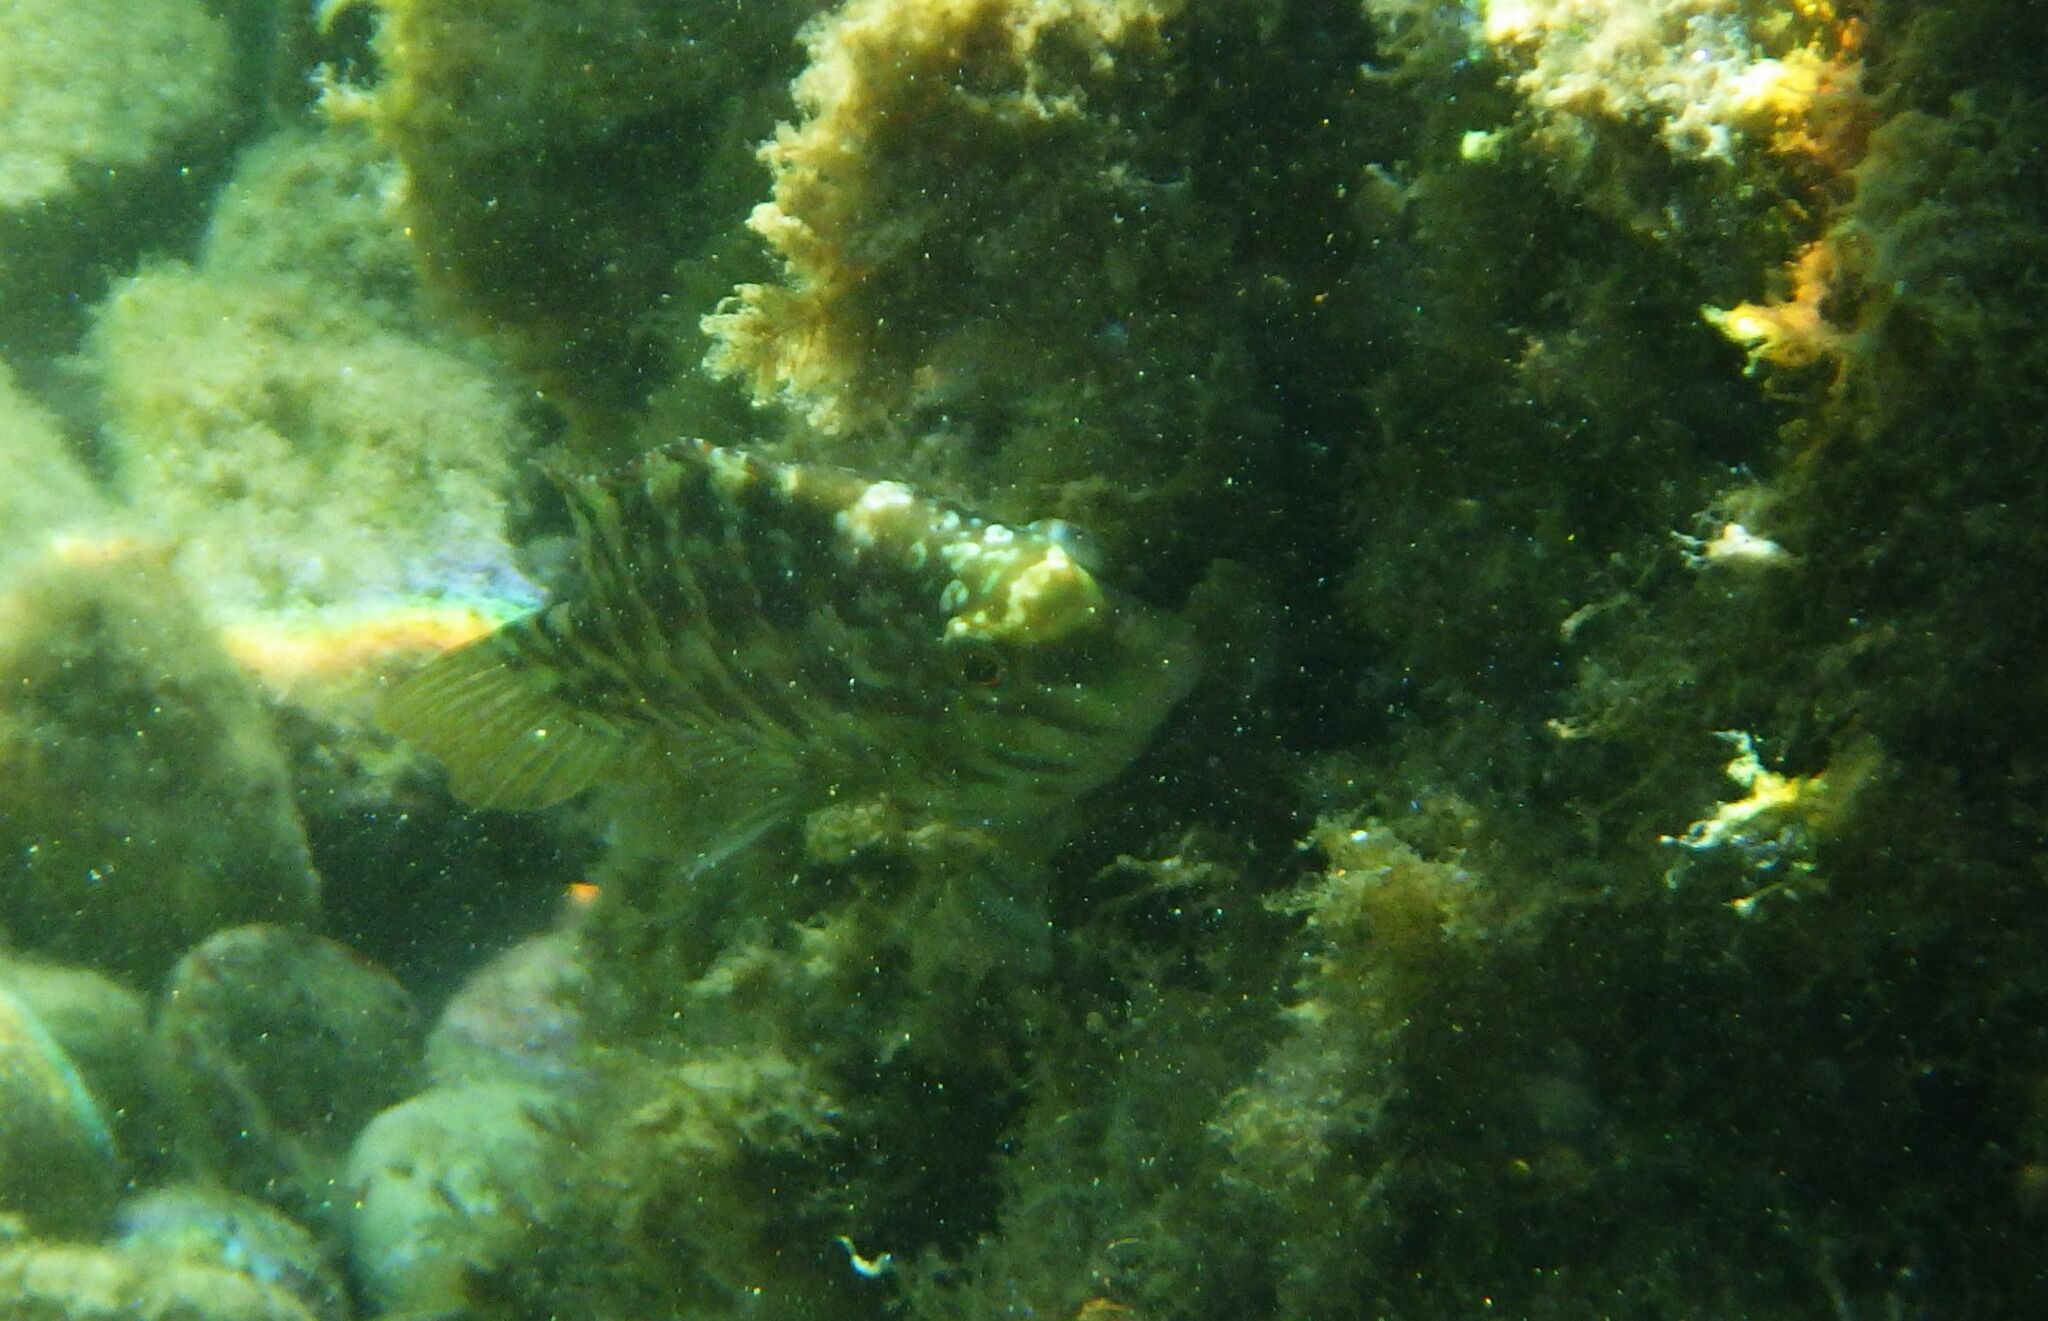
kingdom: Animalia
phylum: Chordata
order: Perciformes
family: Labridae
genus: Symphodus
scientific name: Symphodus roissali
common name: Five-spotted wrasse
